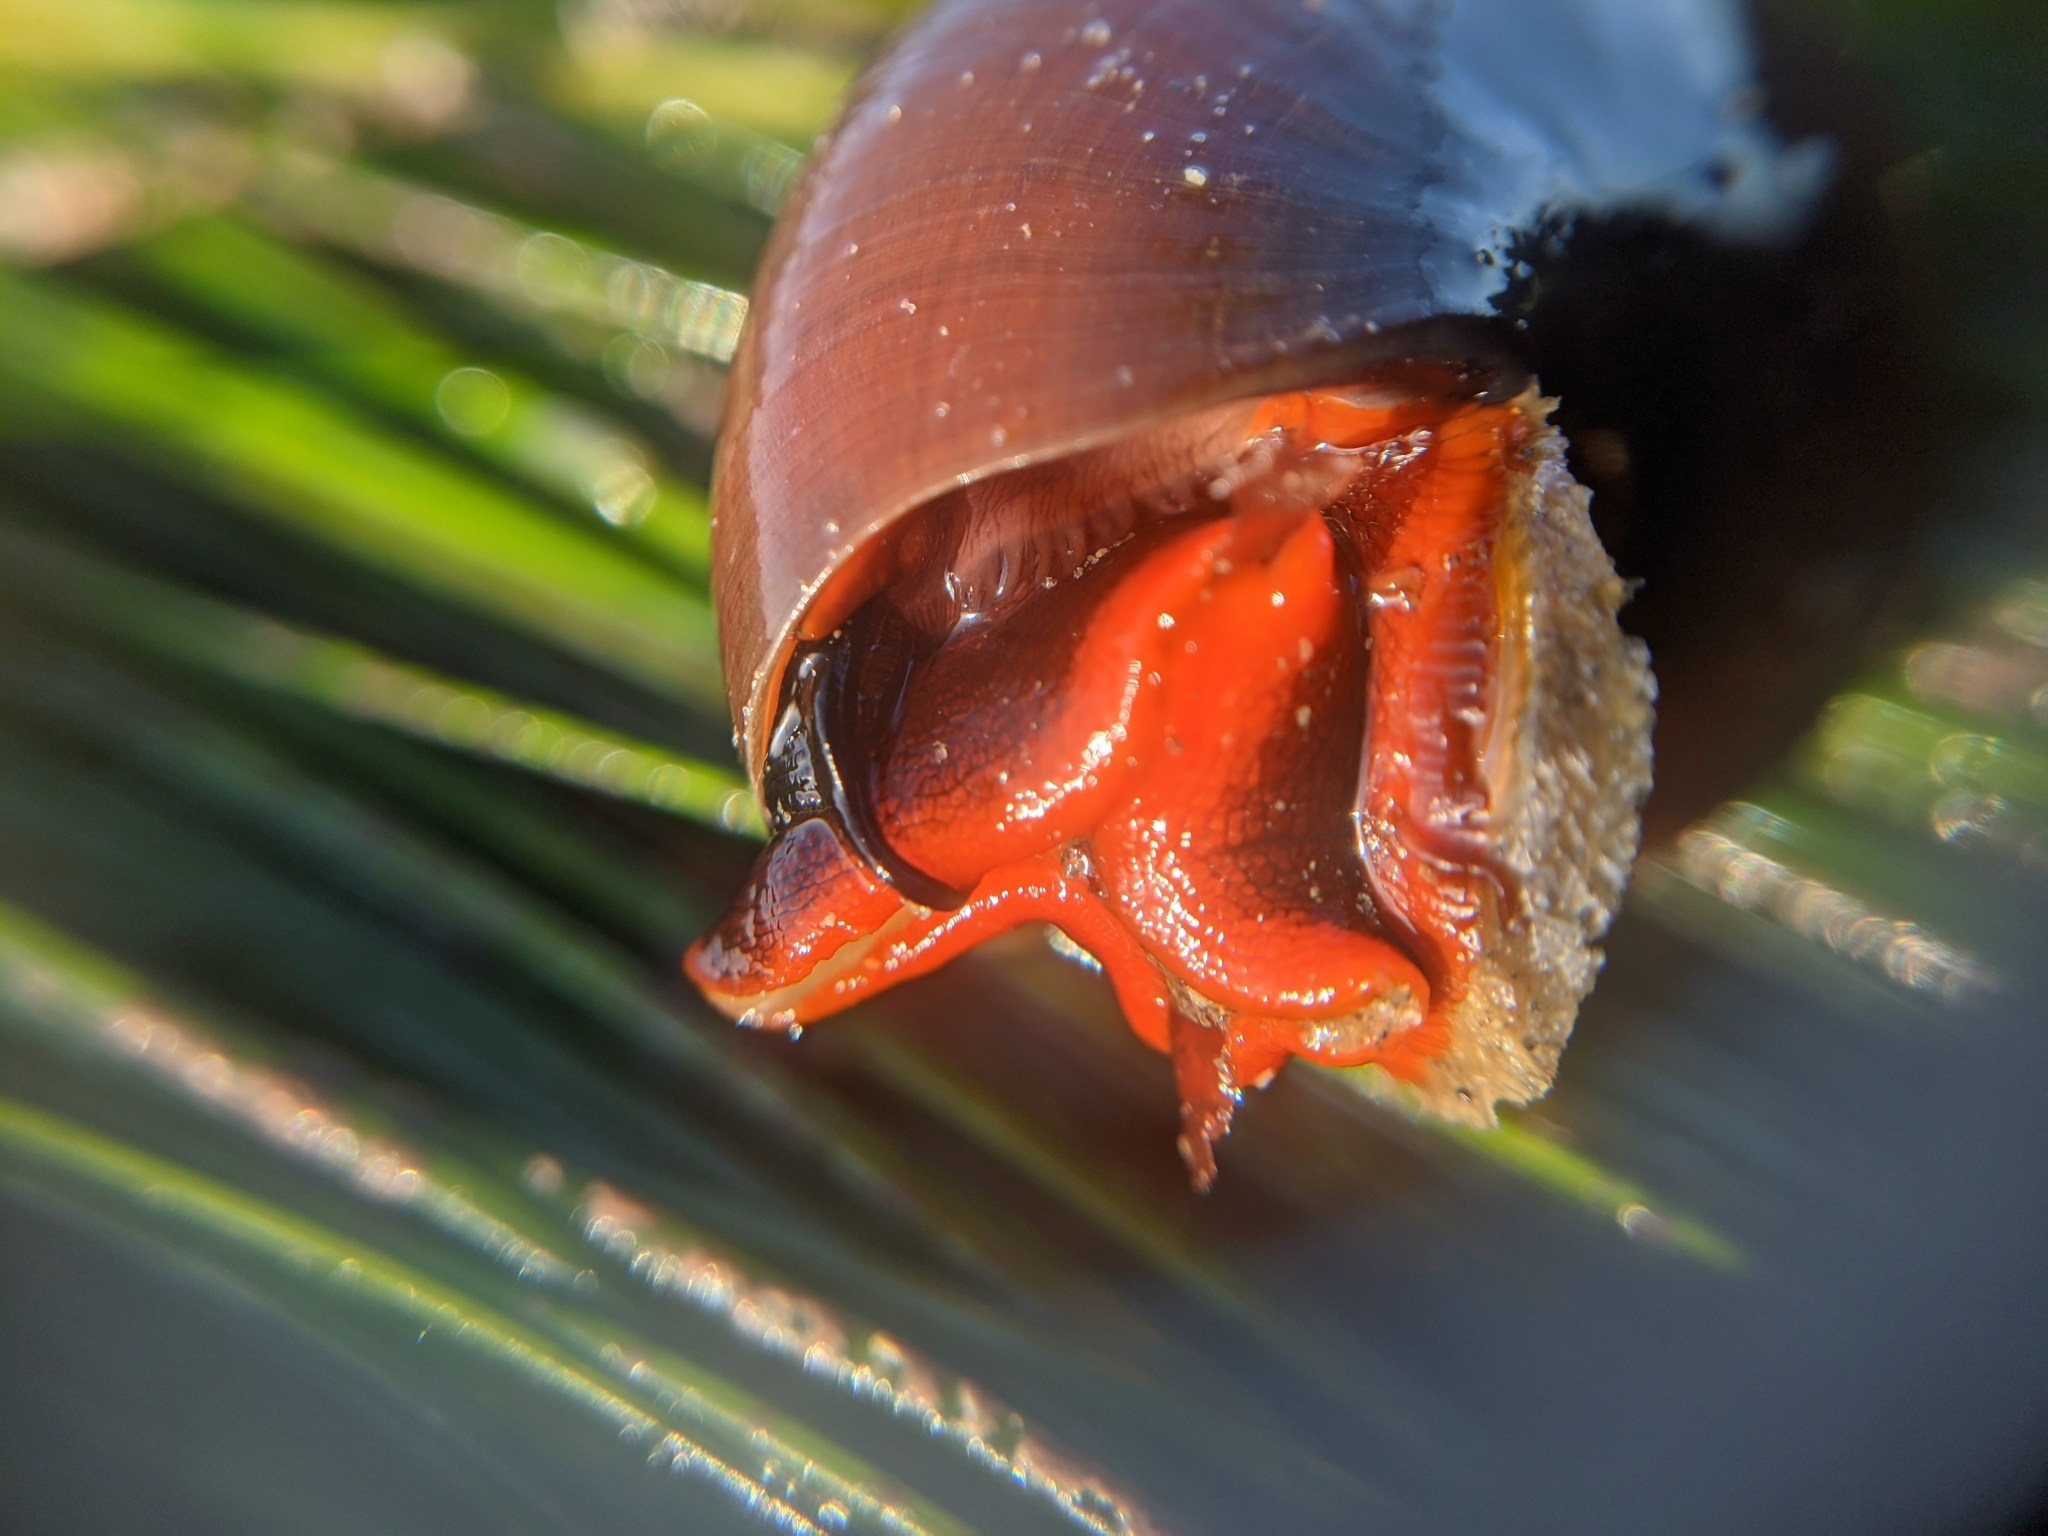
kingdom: Animalia
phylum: Mollusca
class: Gastropoda
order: Trochida
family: Tegulidae
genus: Norrisia
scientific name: Norrisia norrisii
